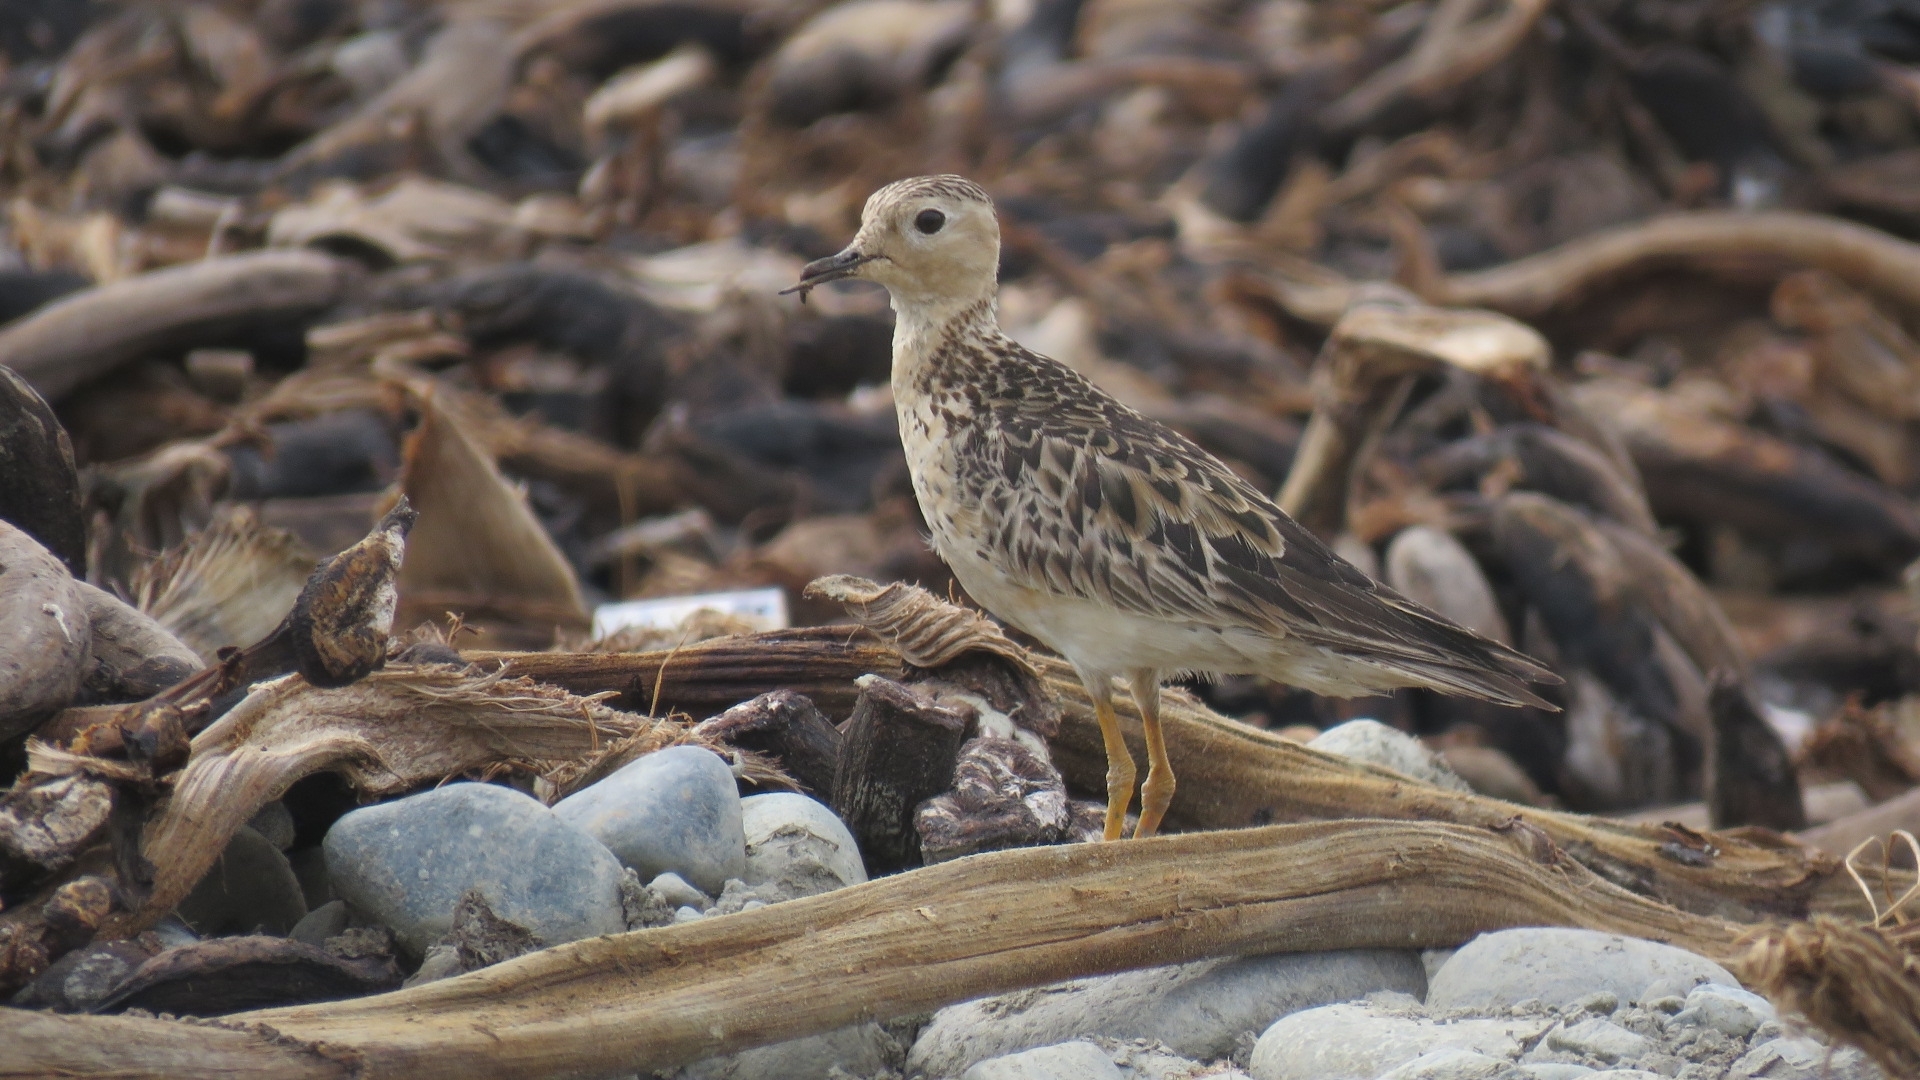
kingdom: Animalia
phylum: Chordata
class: Aves
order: Charadriiformes
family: Scolopacidae
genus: Calidris
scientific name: Calidris subruficollis
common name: Buff-breasted sandpiper
